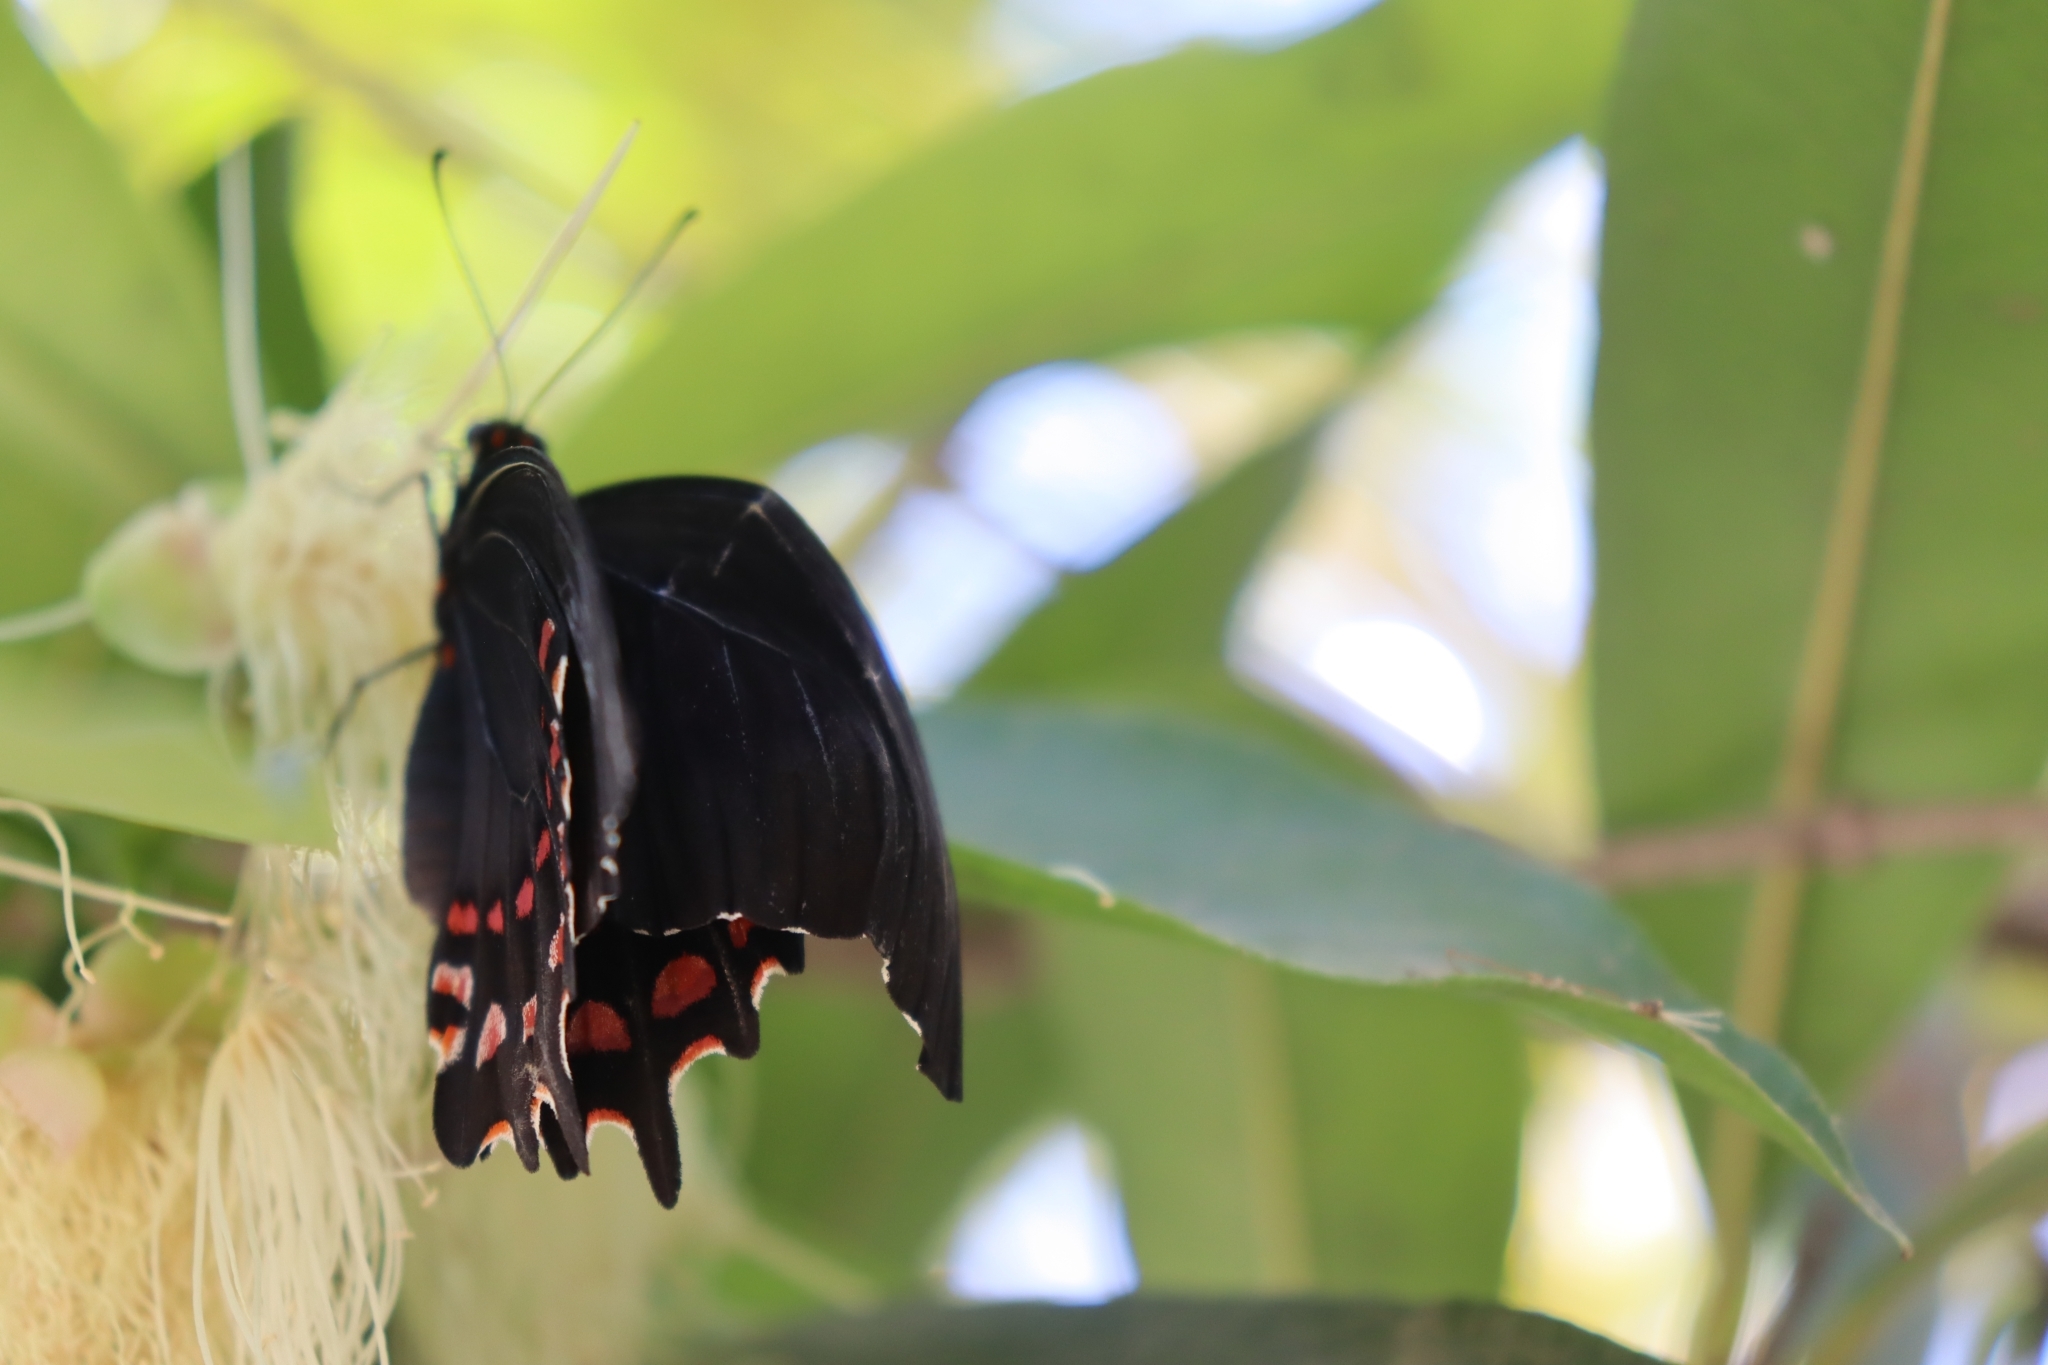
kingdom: Animalia
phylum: Arthropoda
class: Insecta
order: Lepidoptera
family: Papilionidae
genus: Heraclides
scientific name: Heraclides rogeri
